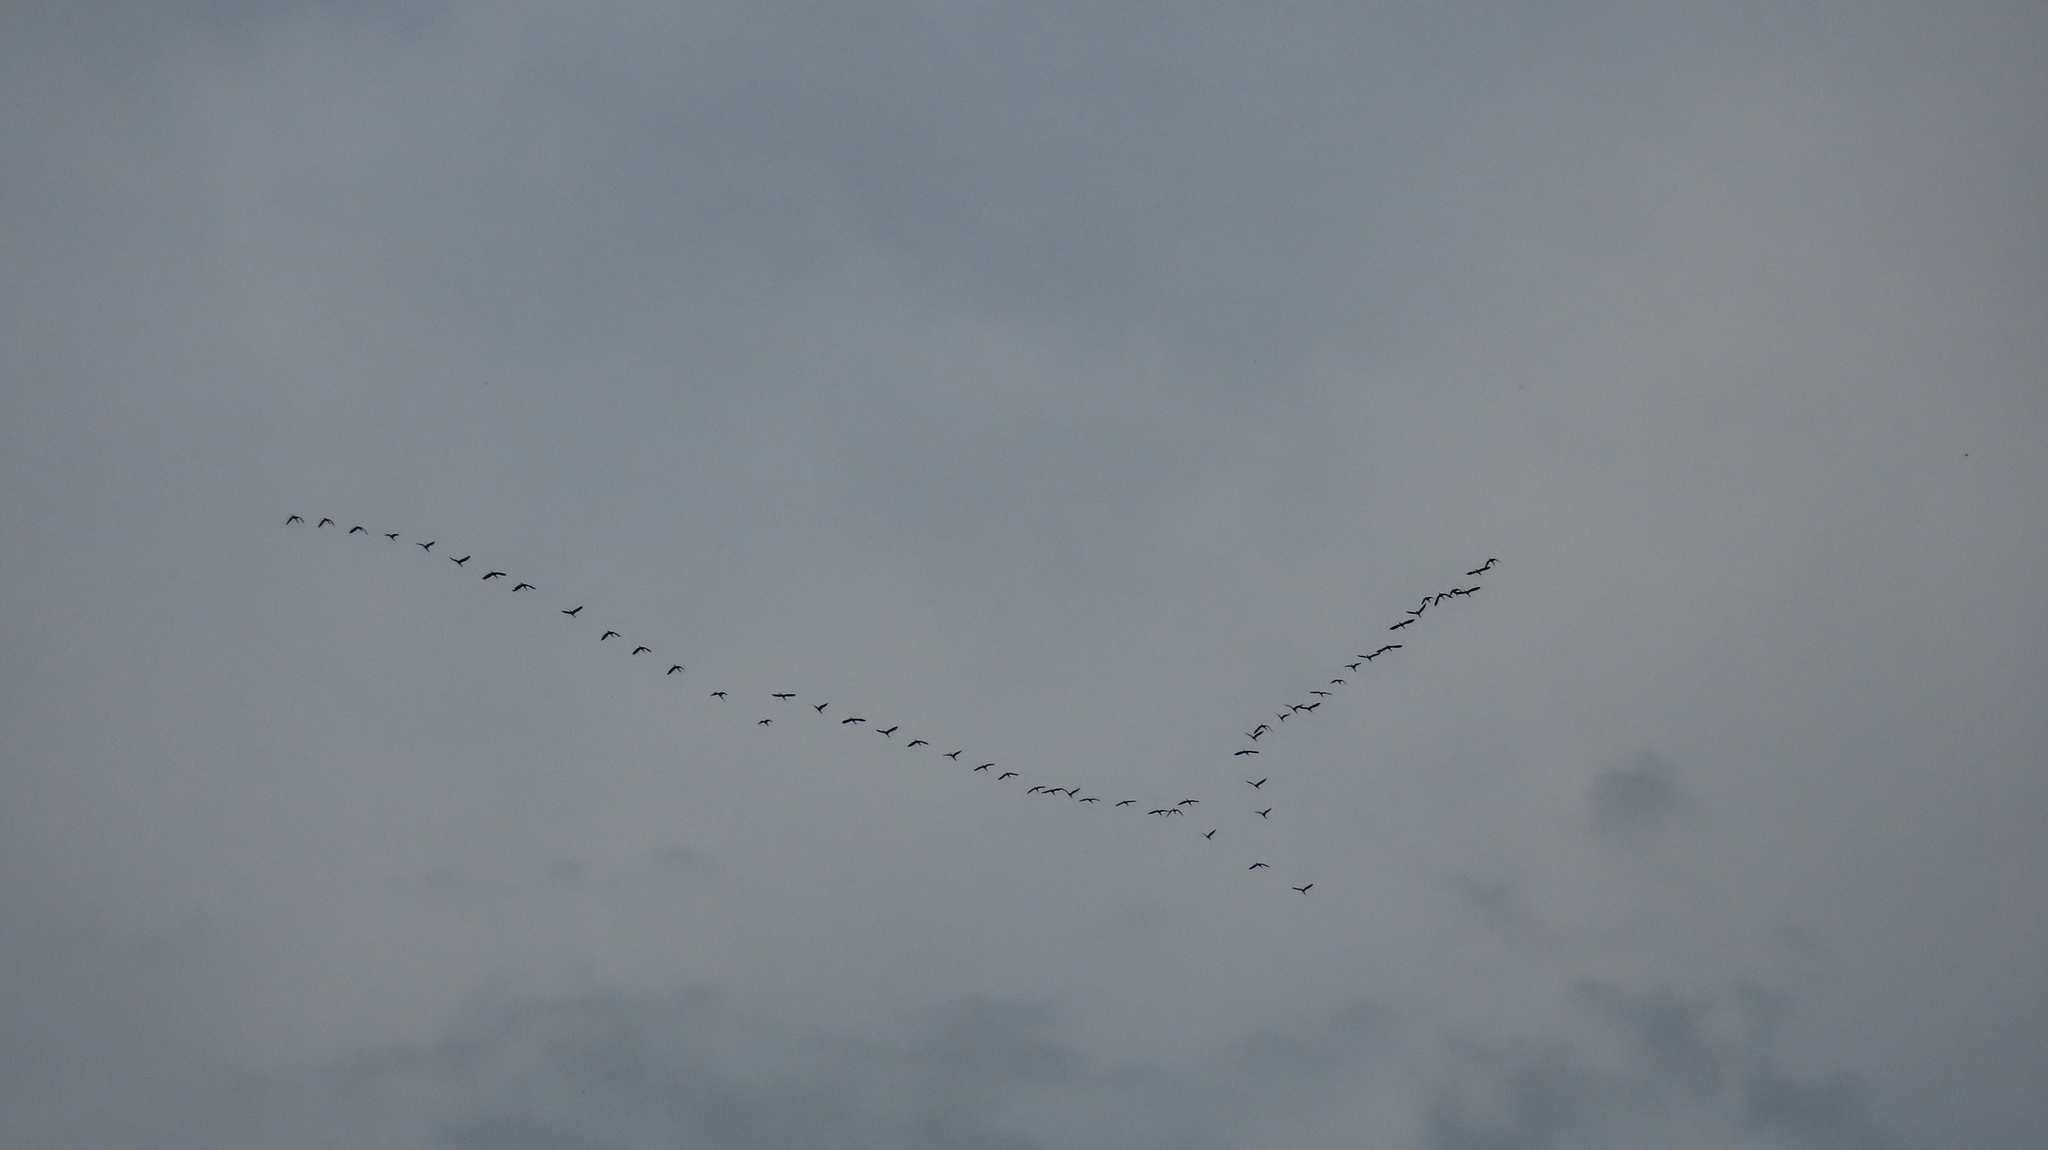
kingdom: Animalia
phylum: Chordata
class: Aves
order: Pelecaniformes
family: Threskiornithidae
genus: Plegadis
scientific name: Plegadis falcinellus
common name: Glossy ibis
